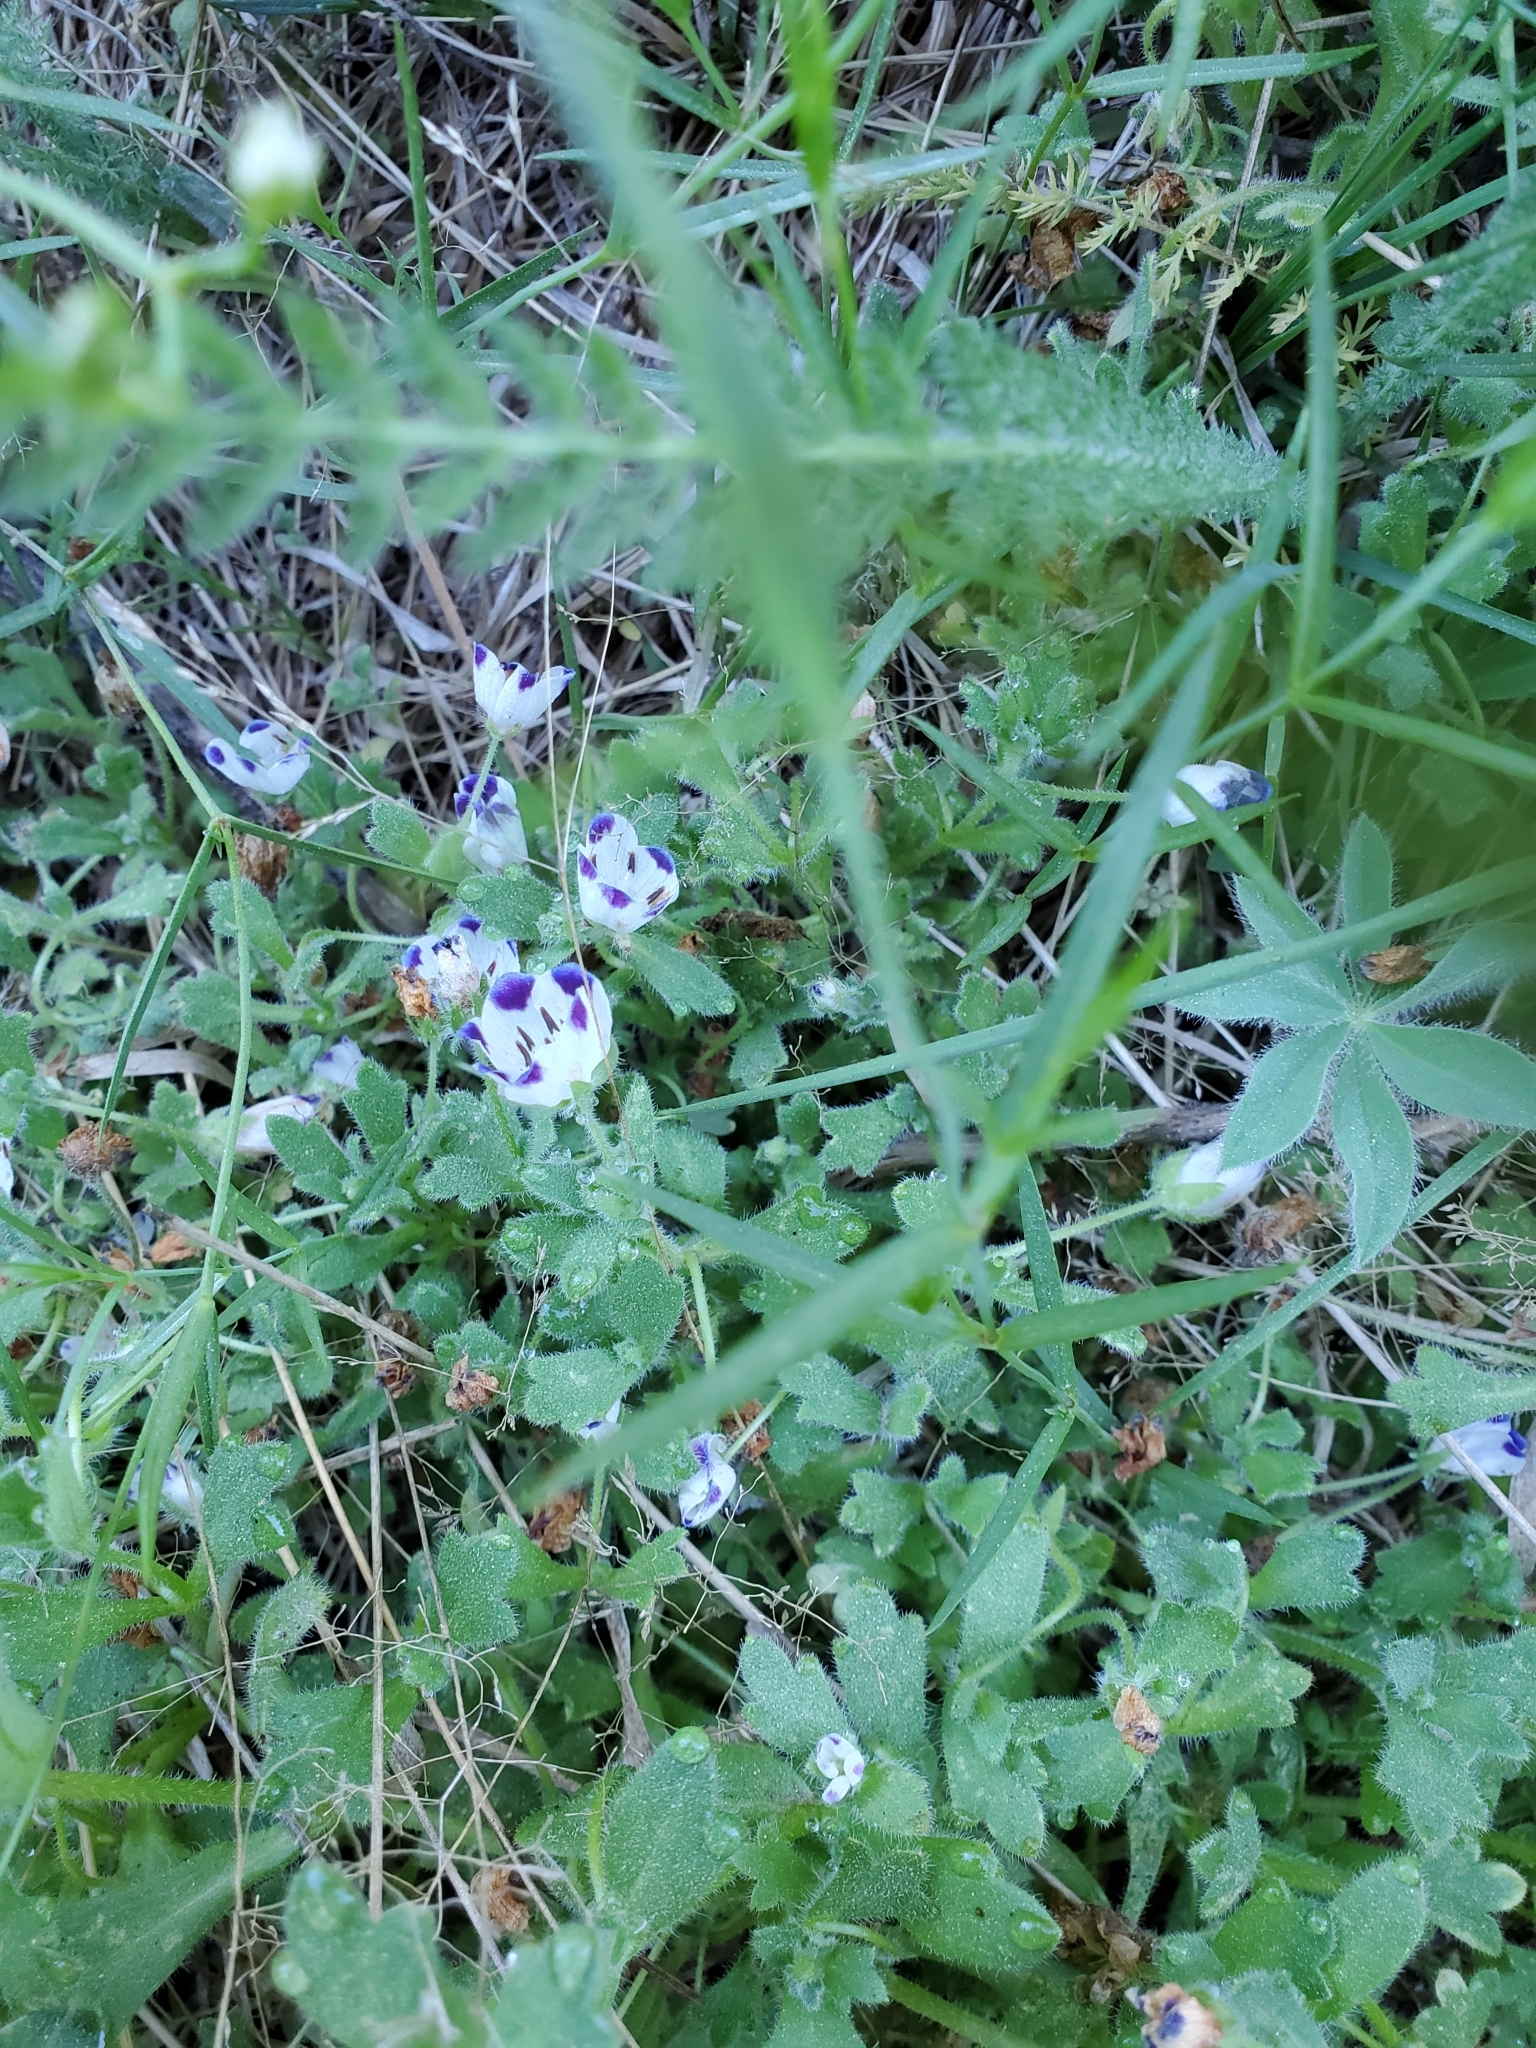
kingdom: Plantae
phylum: Tracheophyta
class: Magnoliopsida
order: Boraginales
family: Hydrophyllaceae
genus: Nemophila
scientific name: Nemophila maculata
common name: Fivespot
